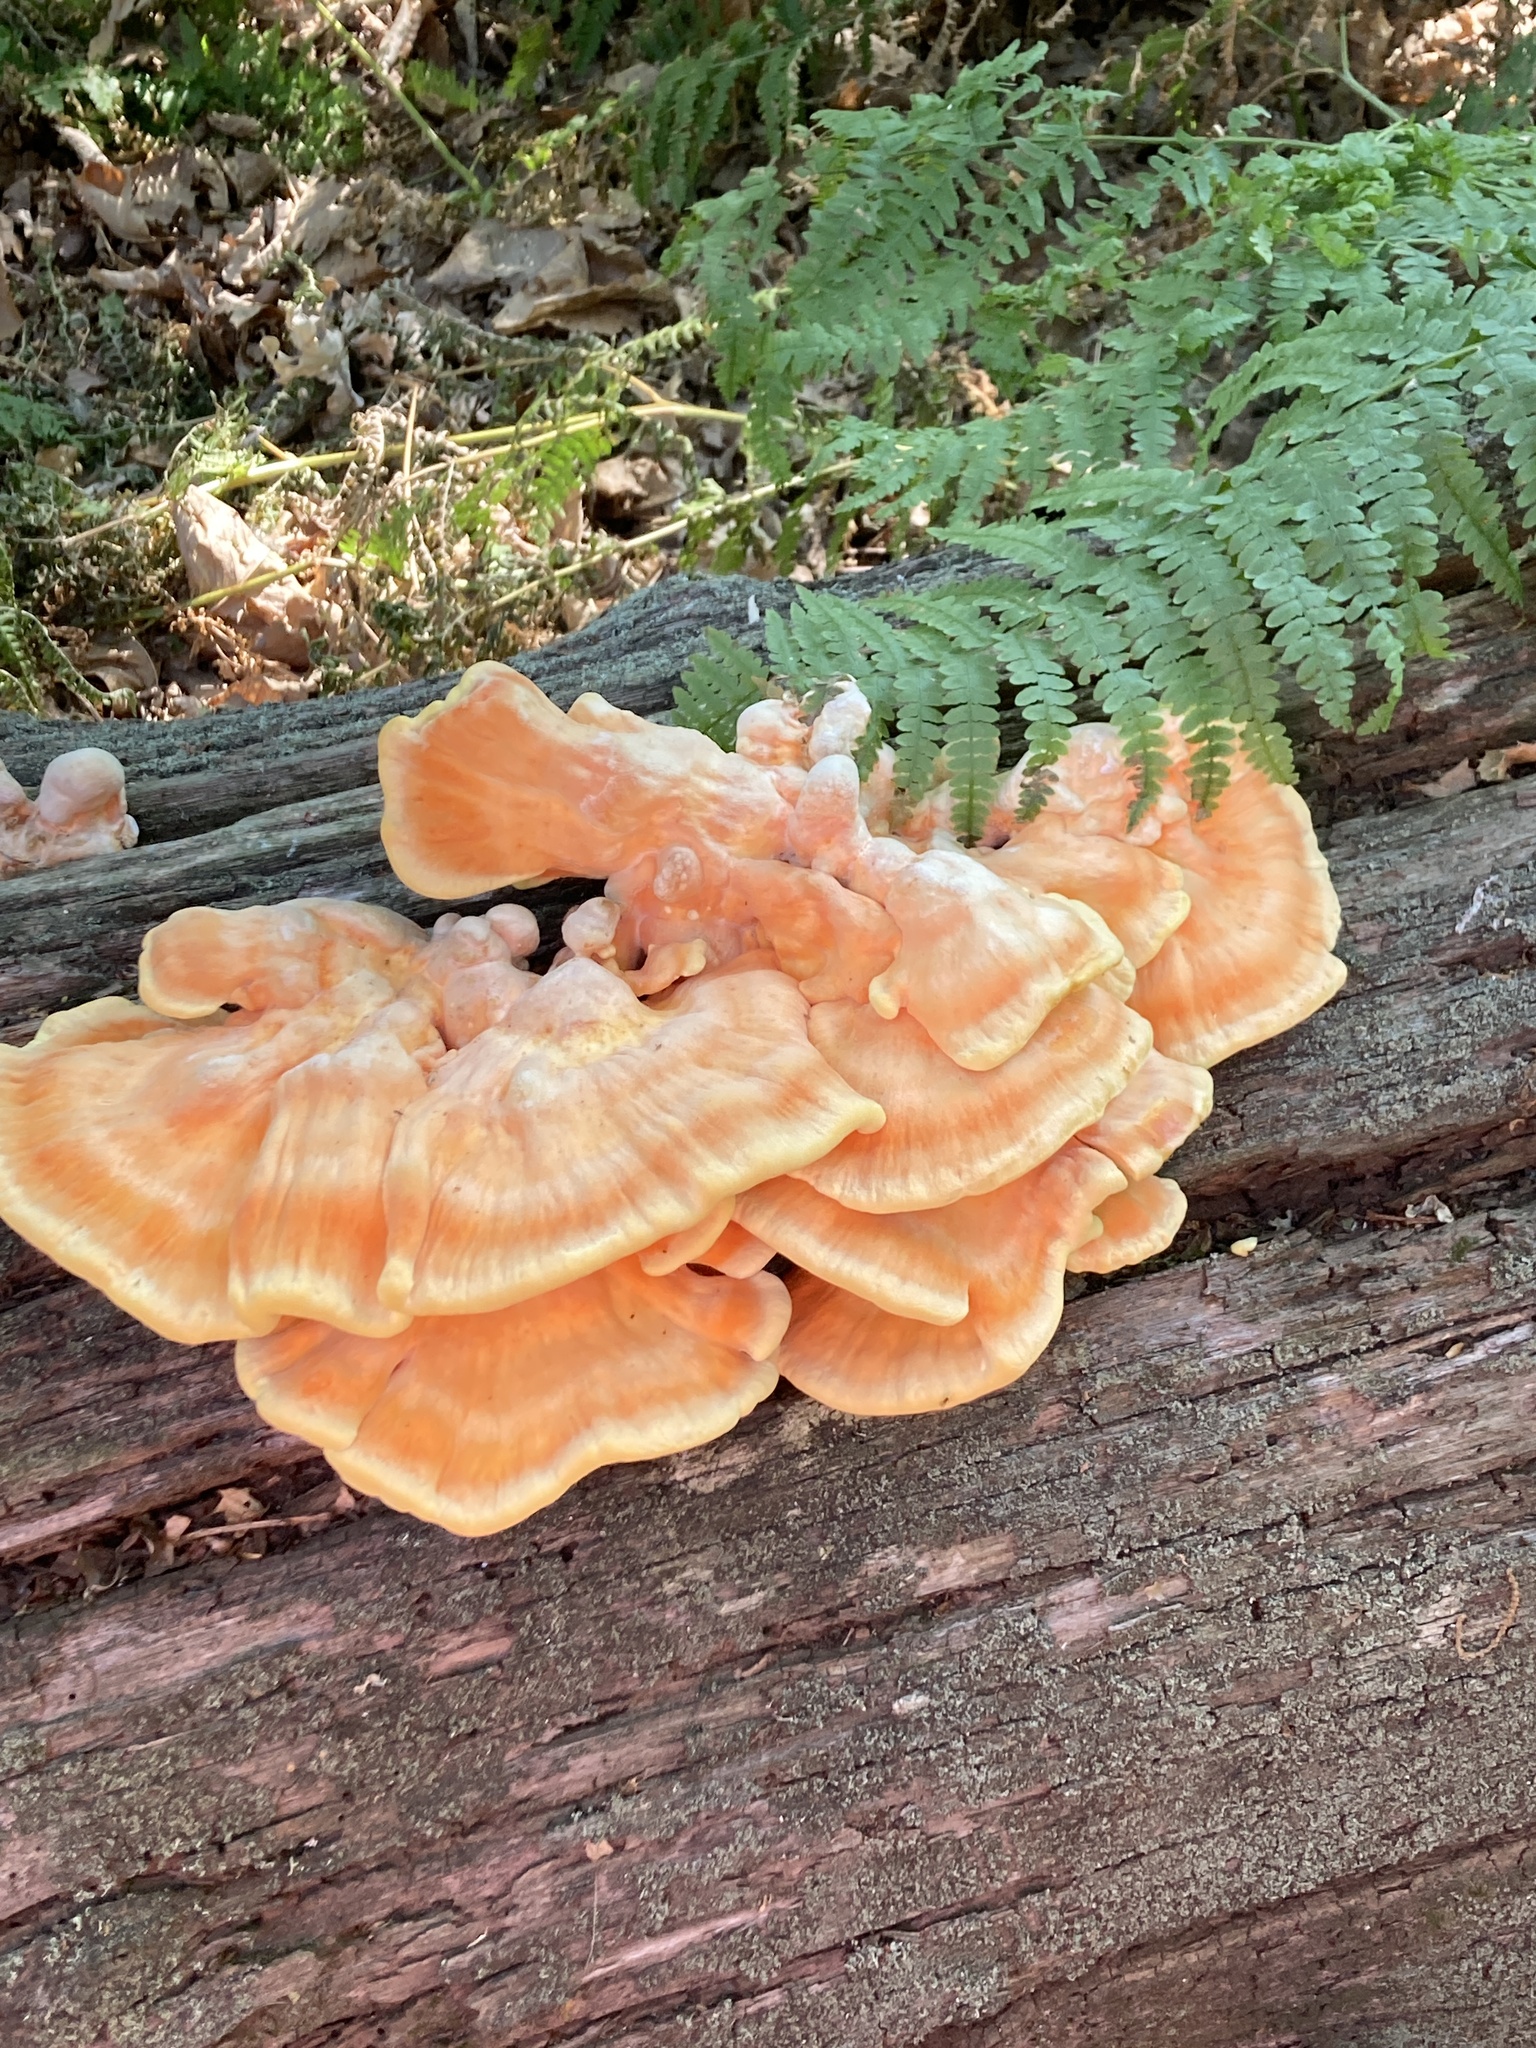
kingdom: Fungi
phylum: Basidiomycota
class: Agaricomycetes
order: Polyporales
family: Laetiporaceae
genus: Laetiporus
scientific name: Laetiporus sulphureus
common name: Chicken of the woods
